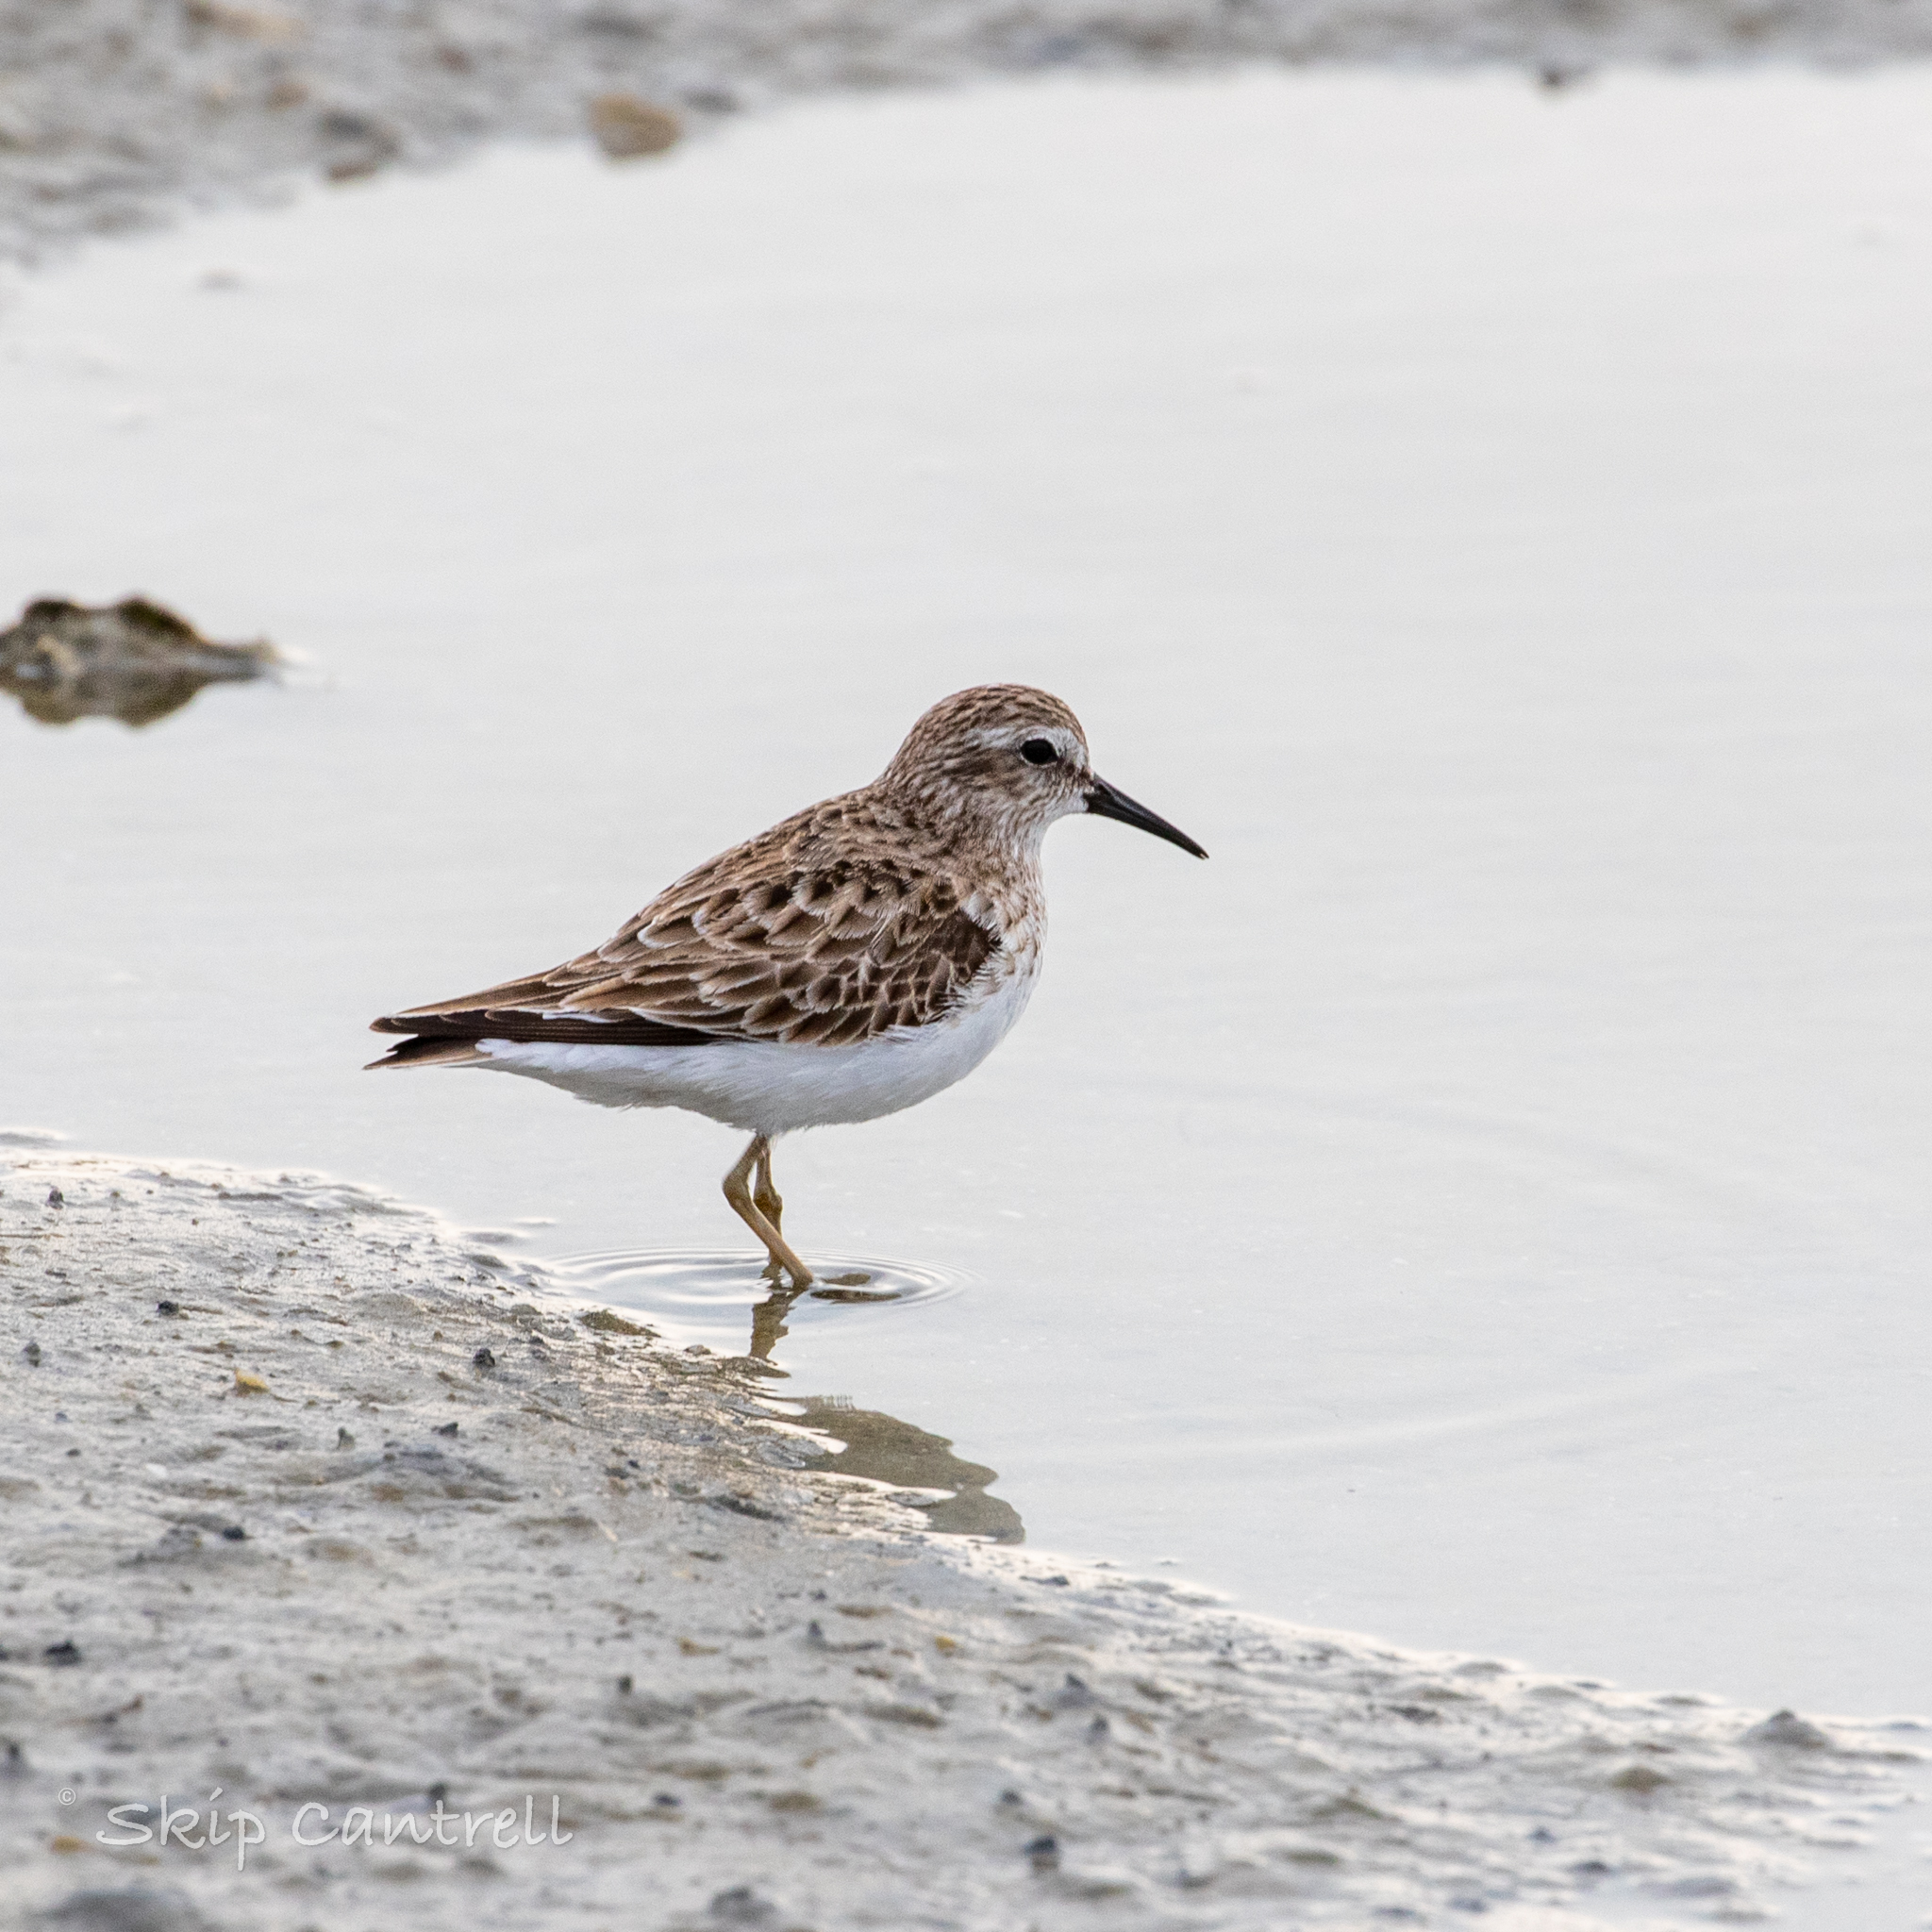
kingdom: Animalia
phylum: Chordata
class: Aves
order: Charadriiformes
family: Scolopacidae
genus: Calidris
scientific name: Calidris minutilla
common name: Least sandpiper
